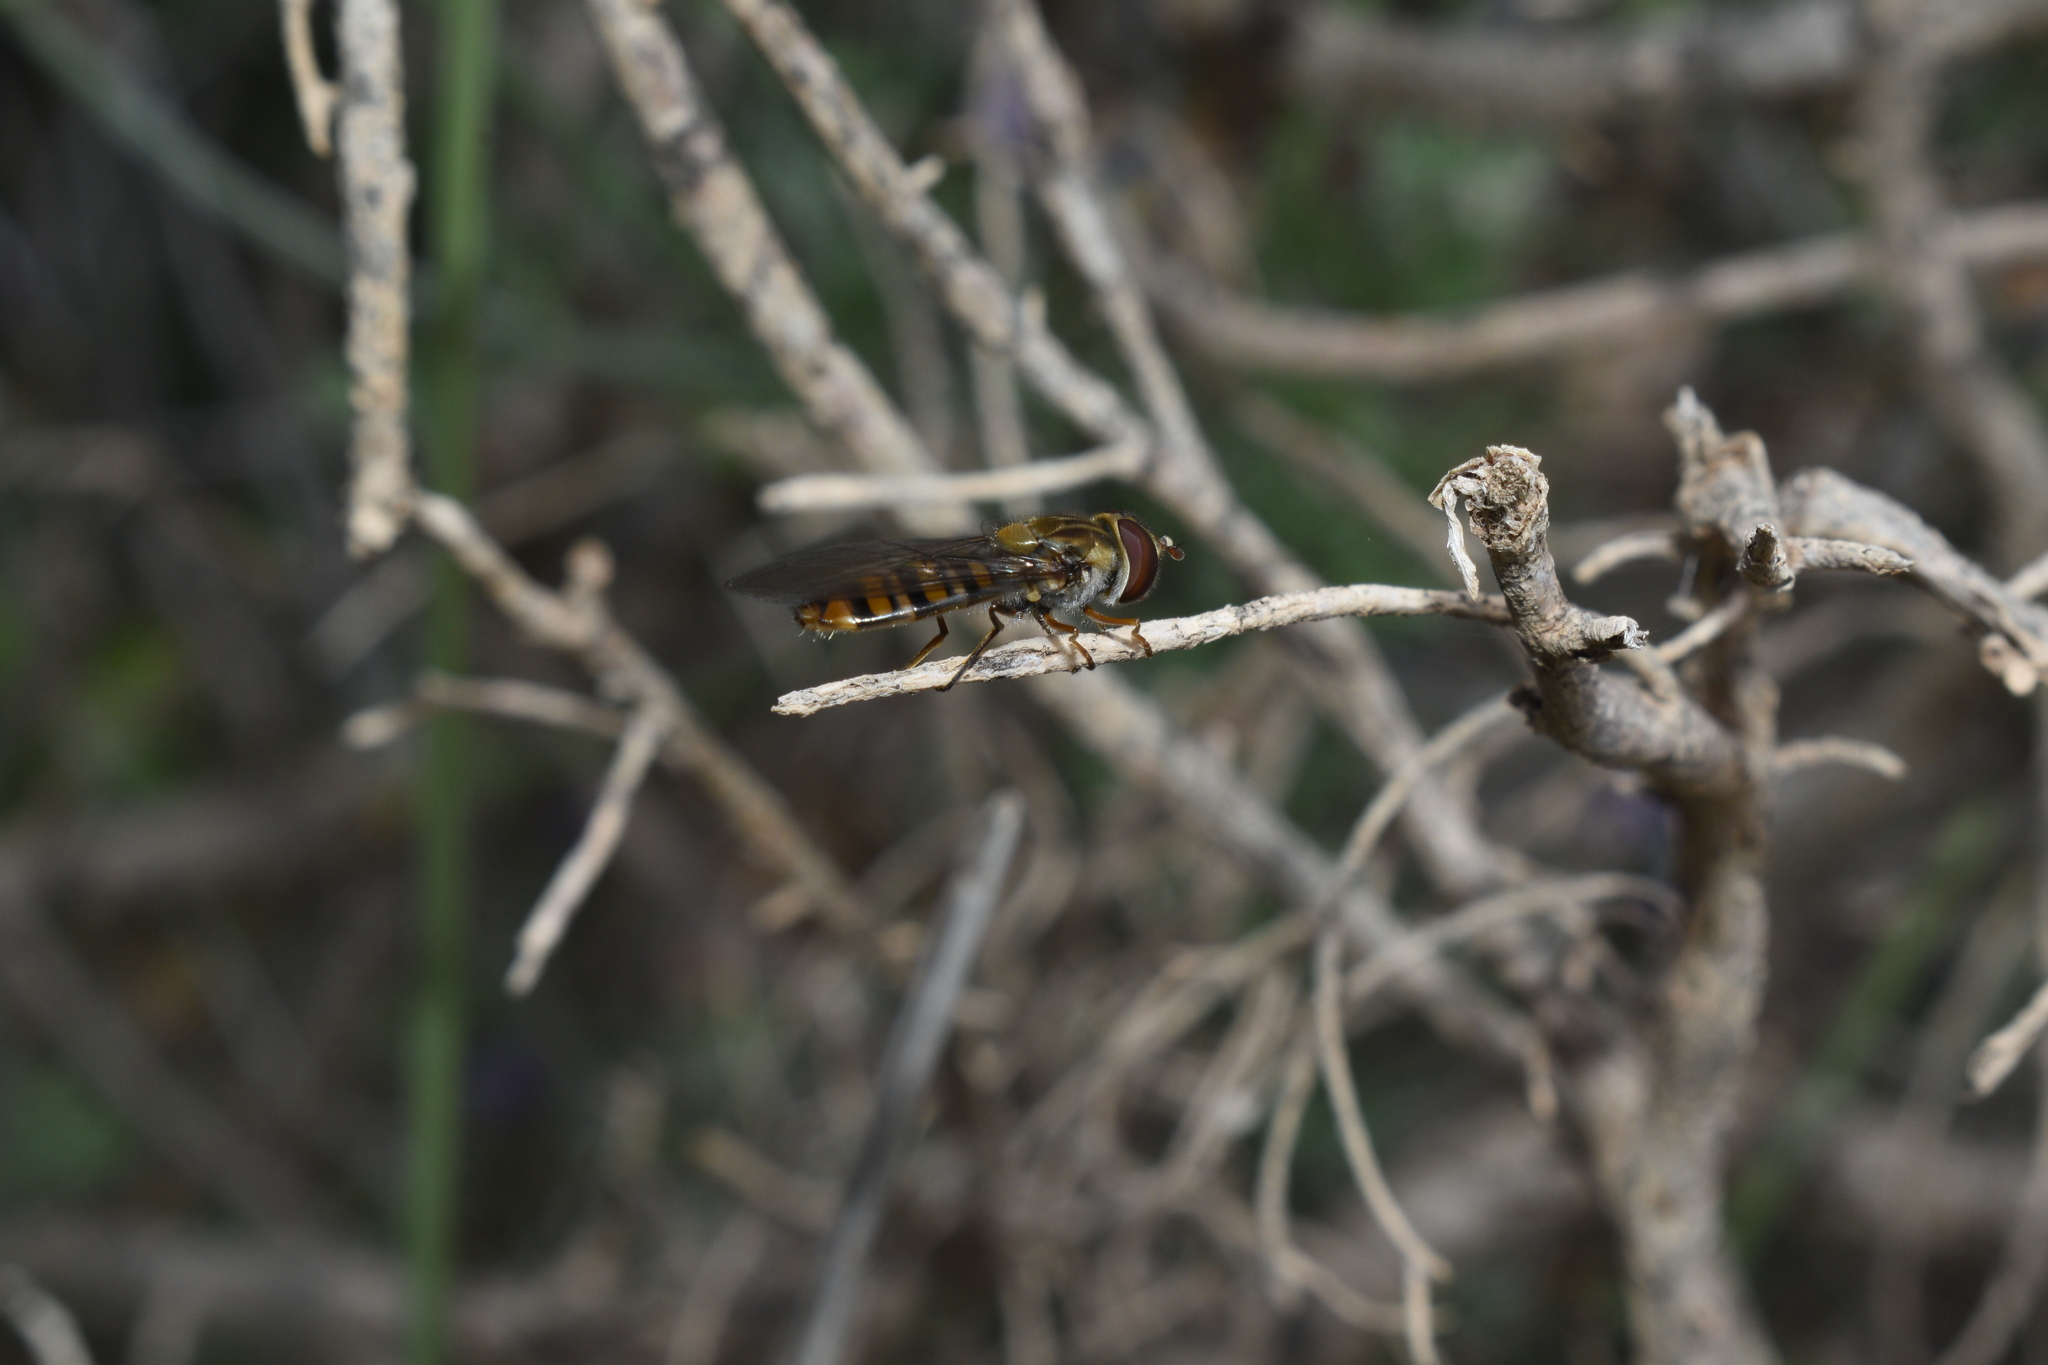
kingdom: Animalia
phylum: Arthropoda
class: Insecta
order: Diptera
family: Syrphidae
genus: Episyrphus
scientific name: Episyrphus balteatus
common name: Marmalade hoverfly
